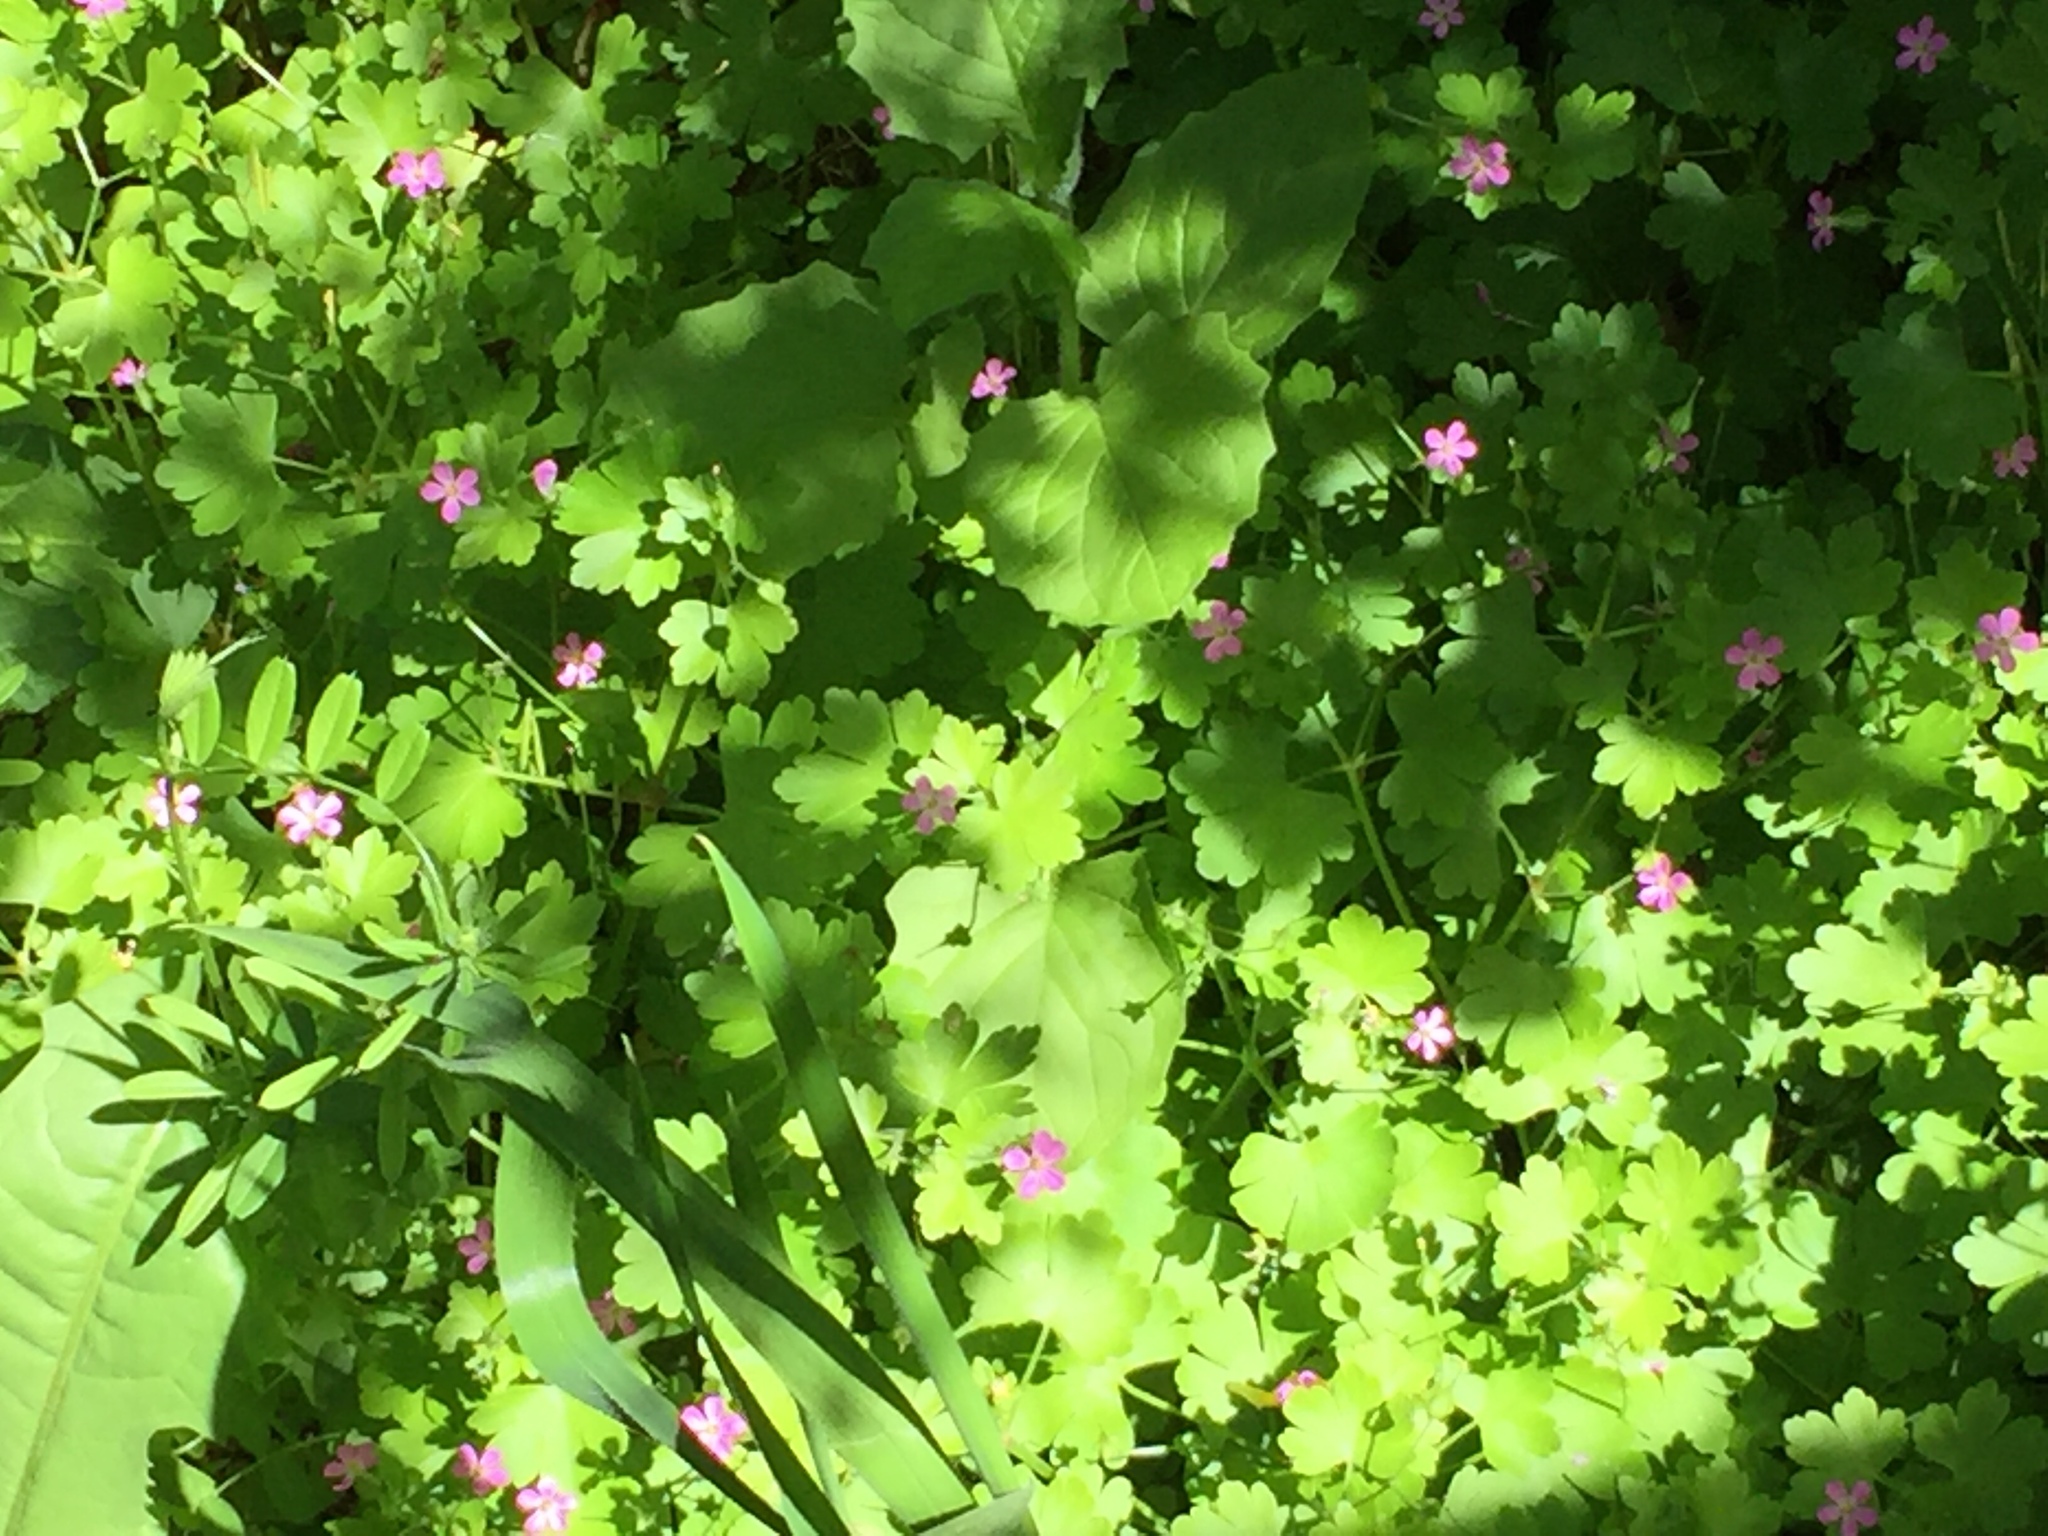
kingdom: Plantae
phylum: Tracheophyta
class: Magnoliopsida
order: Geraniales
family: Geraniaceae
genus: Geranium
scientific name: Geranium lucidum
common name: Shining crane's-bill
